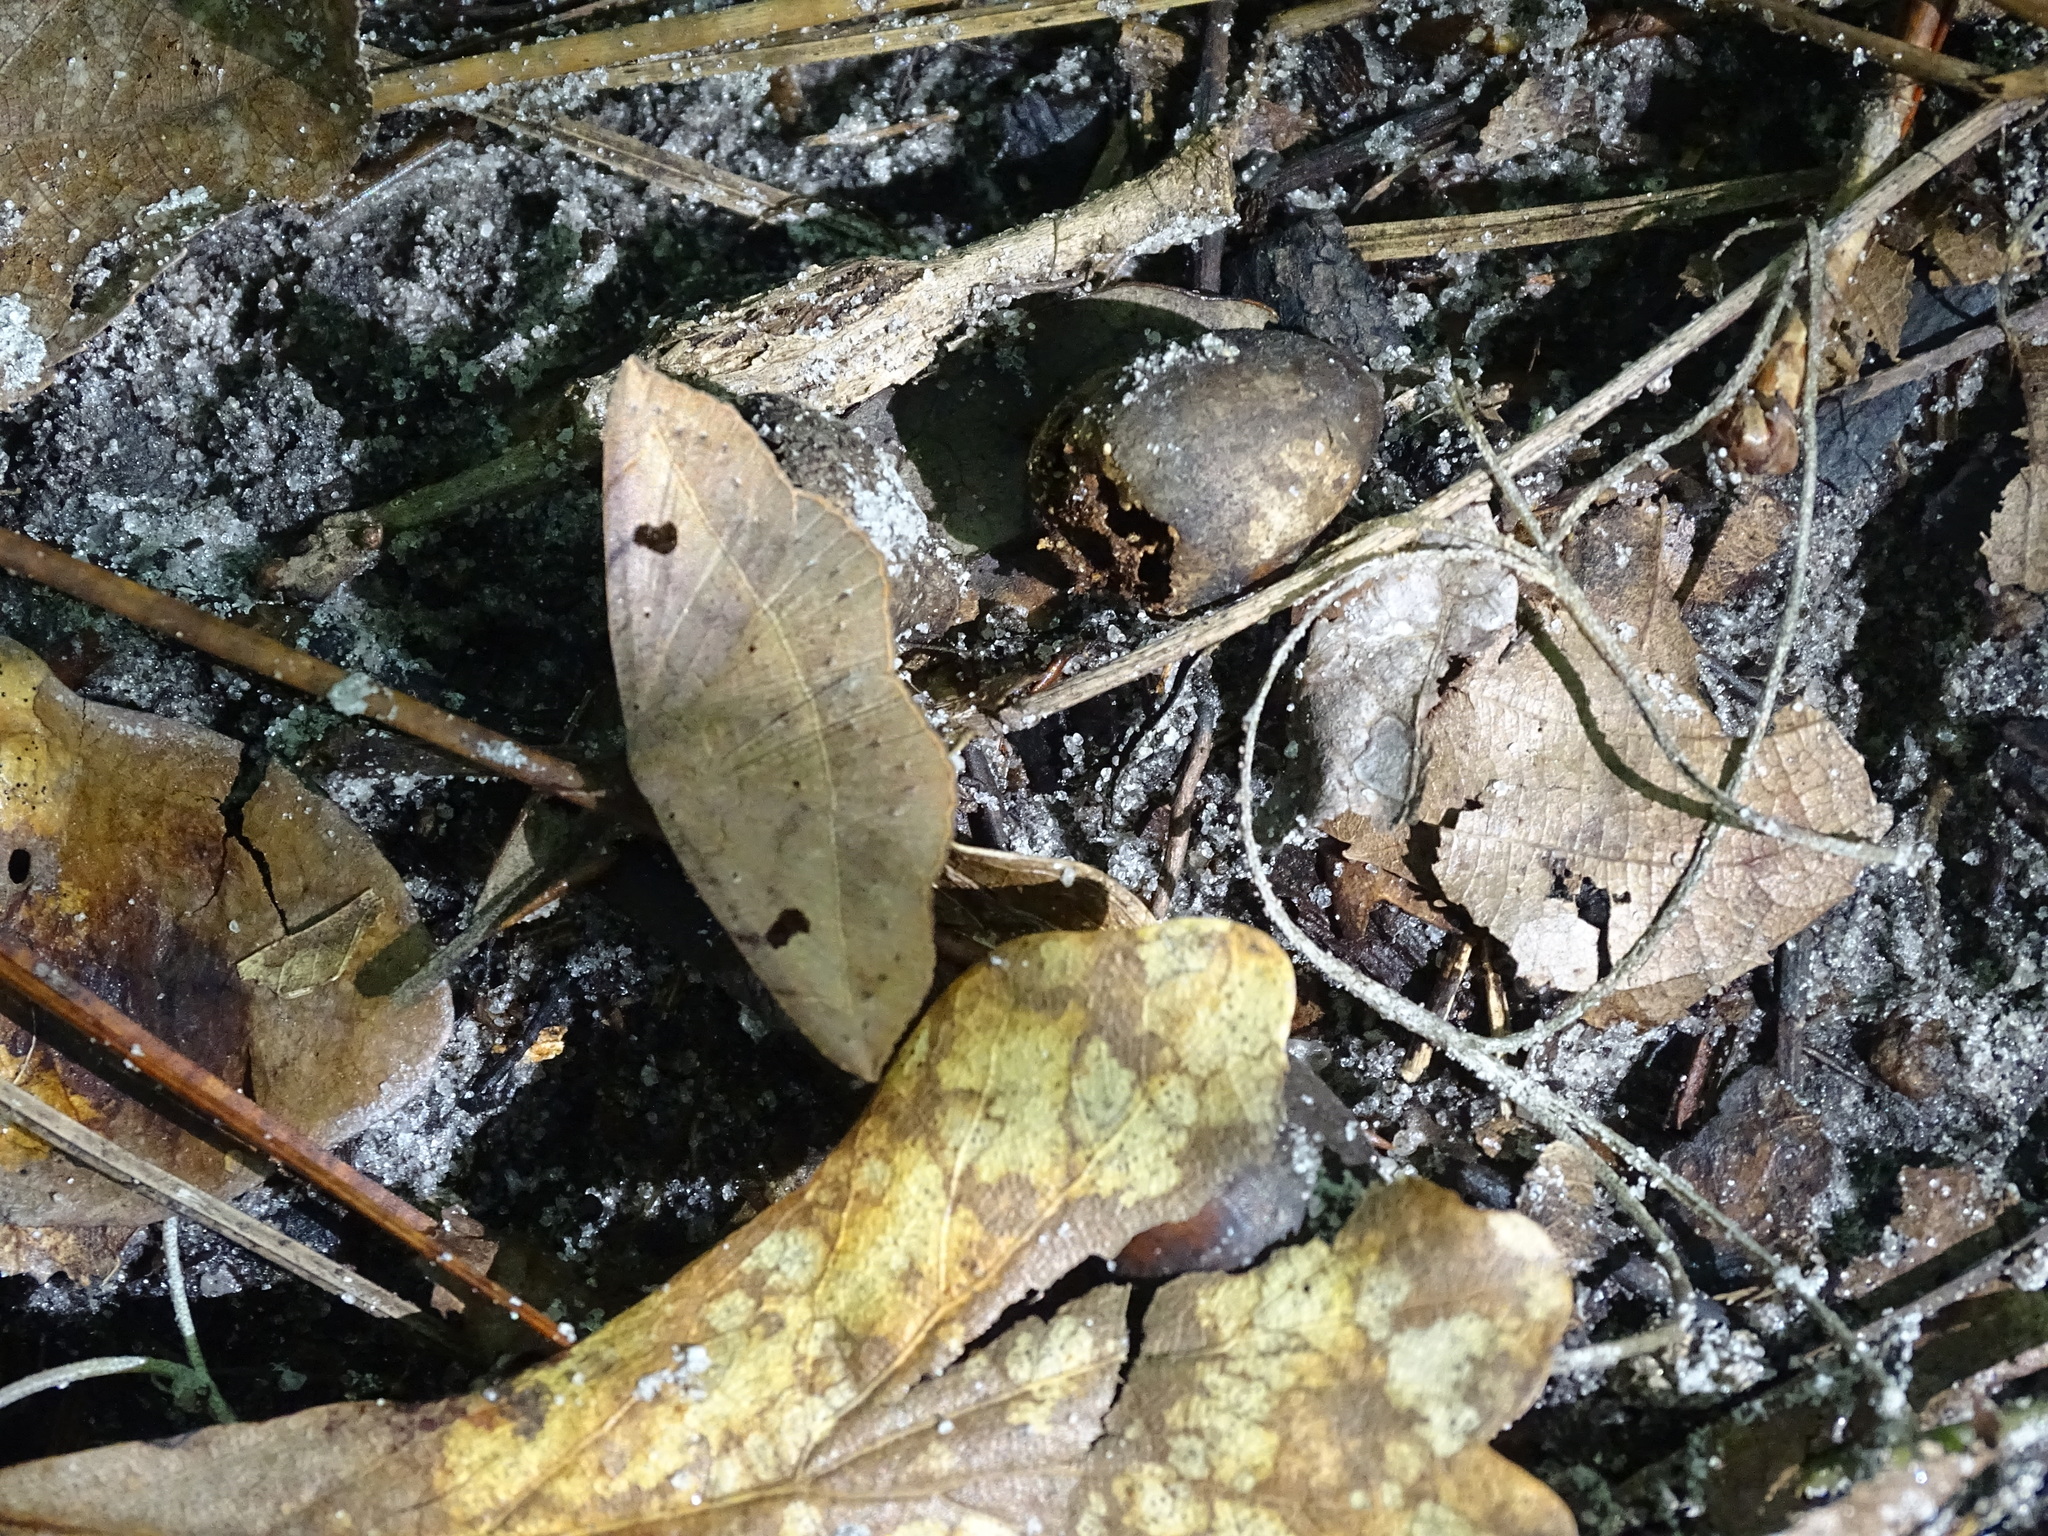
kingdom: Animalia
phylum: Arthropoda
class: Insecta
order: Lepidoptera
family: Erebidae
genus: Metallata
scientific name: Metallata absumens
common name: Brown leaf mimic
